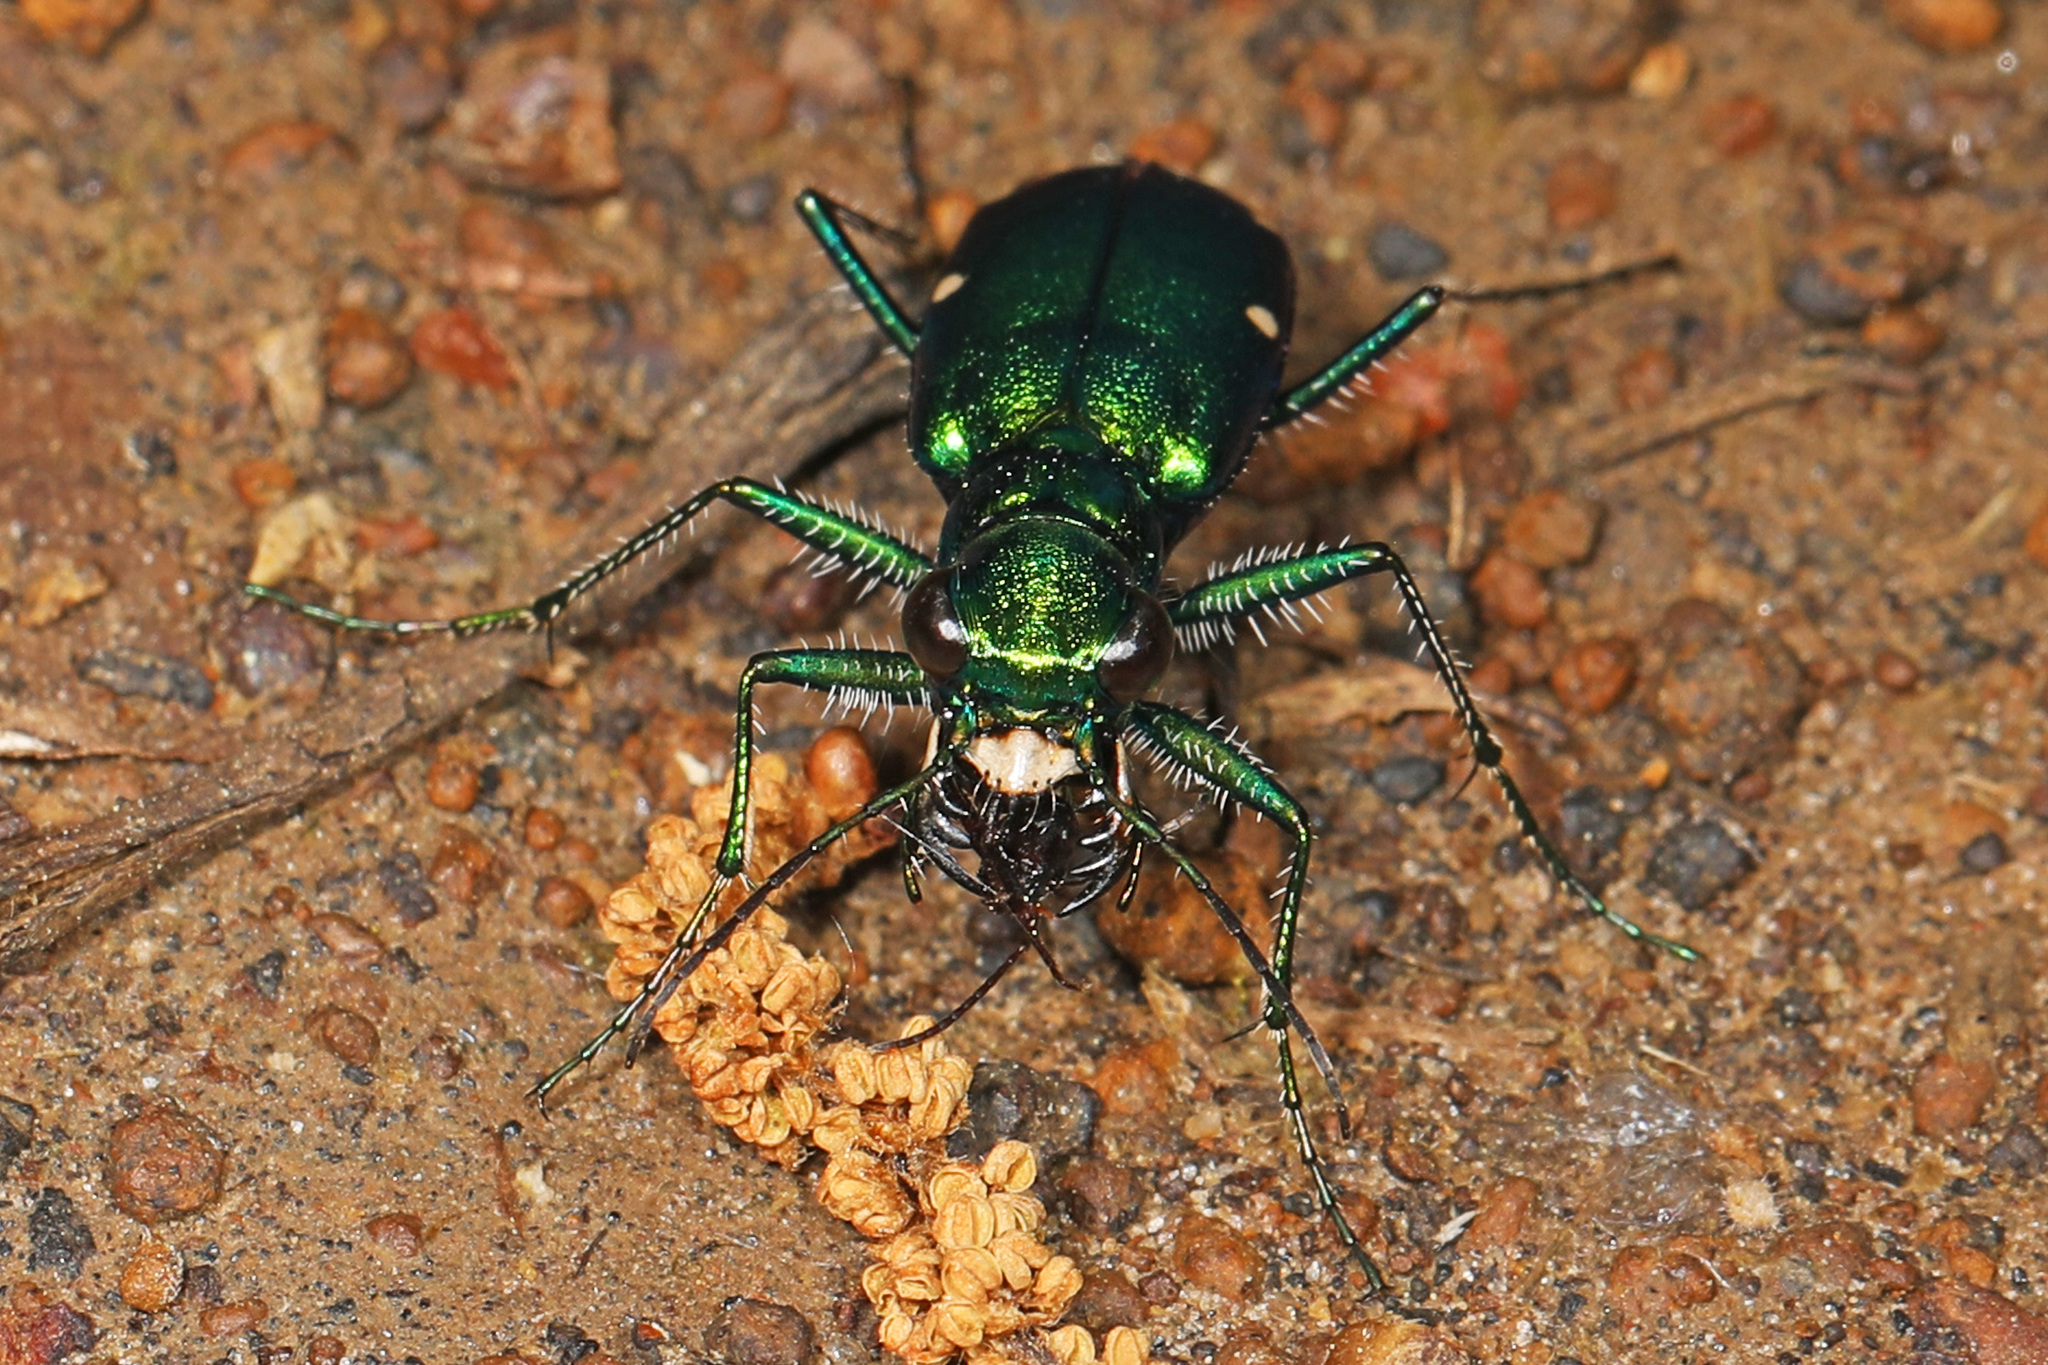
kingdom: Animalia
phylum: Arthropoda
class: Insecta
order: Coleoptera
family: Carabidae
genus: Cicindela
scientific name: Cicindela sexguttata
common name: Six-spotted tiger beetle
